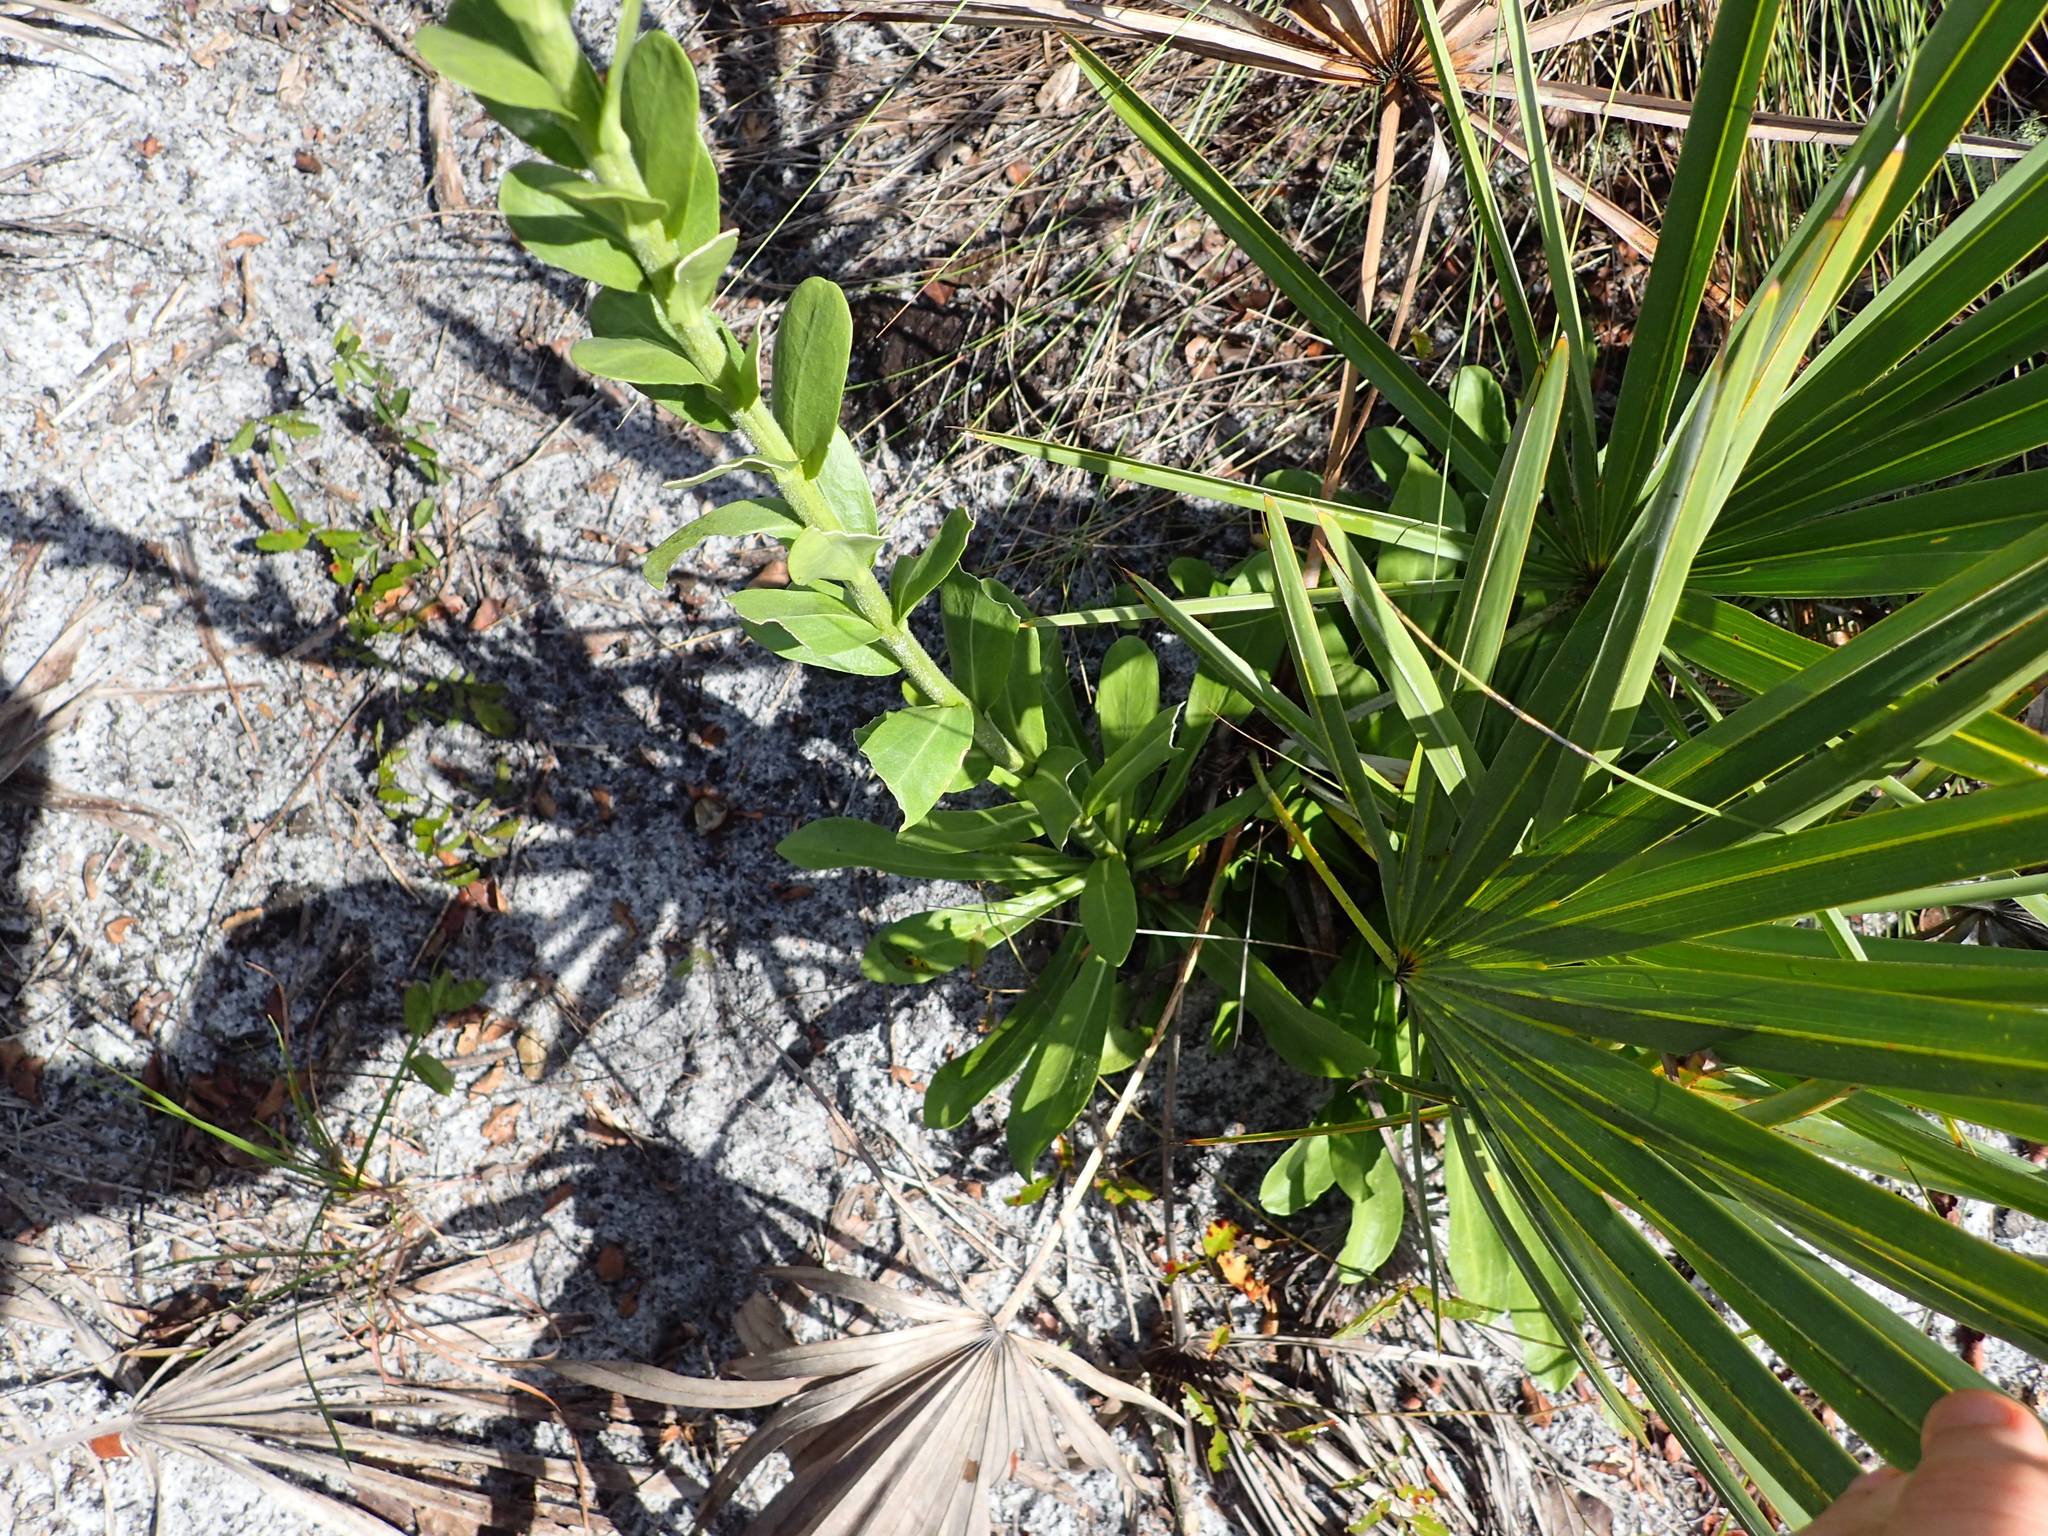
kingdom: Plantae
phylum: Tracheophyta
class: Magnoliopsida
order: Asterales
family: Asteraceae
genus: Carphephorus
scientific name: Carphephorus corymbosus
